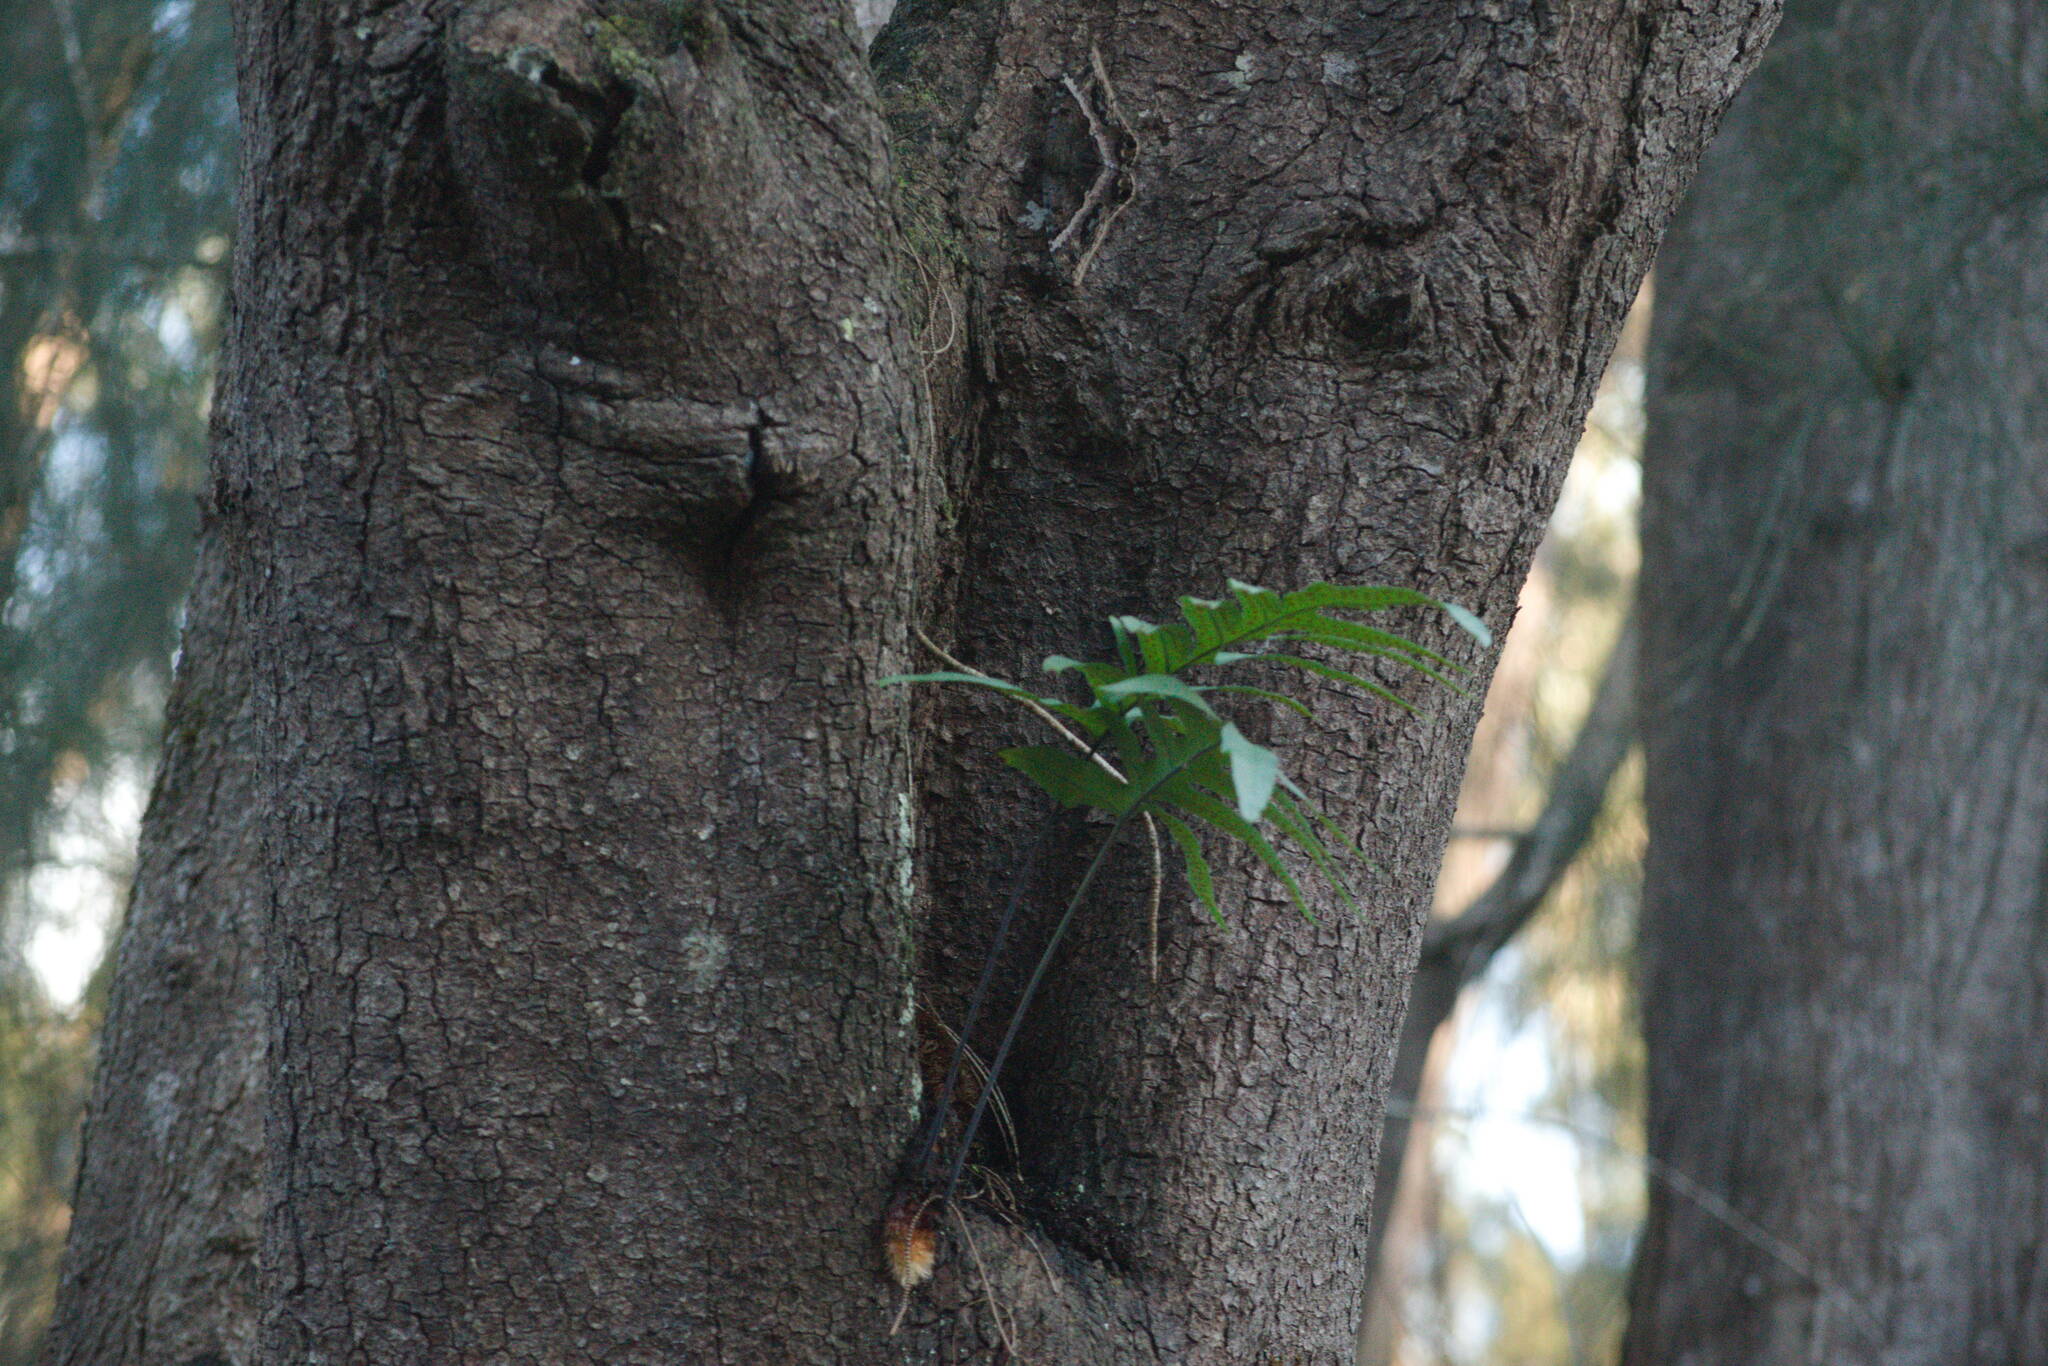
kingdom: Plantae
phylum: Tracheophyta
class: Polypodiopsida
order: Polypodiales
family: Polypodiaceae
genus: Phlebodium
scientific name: Phlebodium aureum
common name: Gold-foot fern
